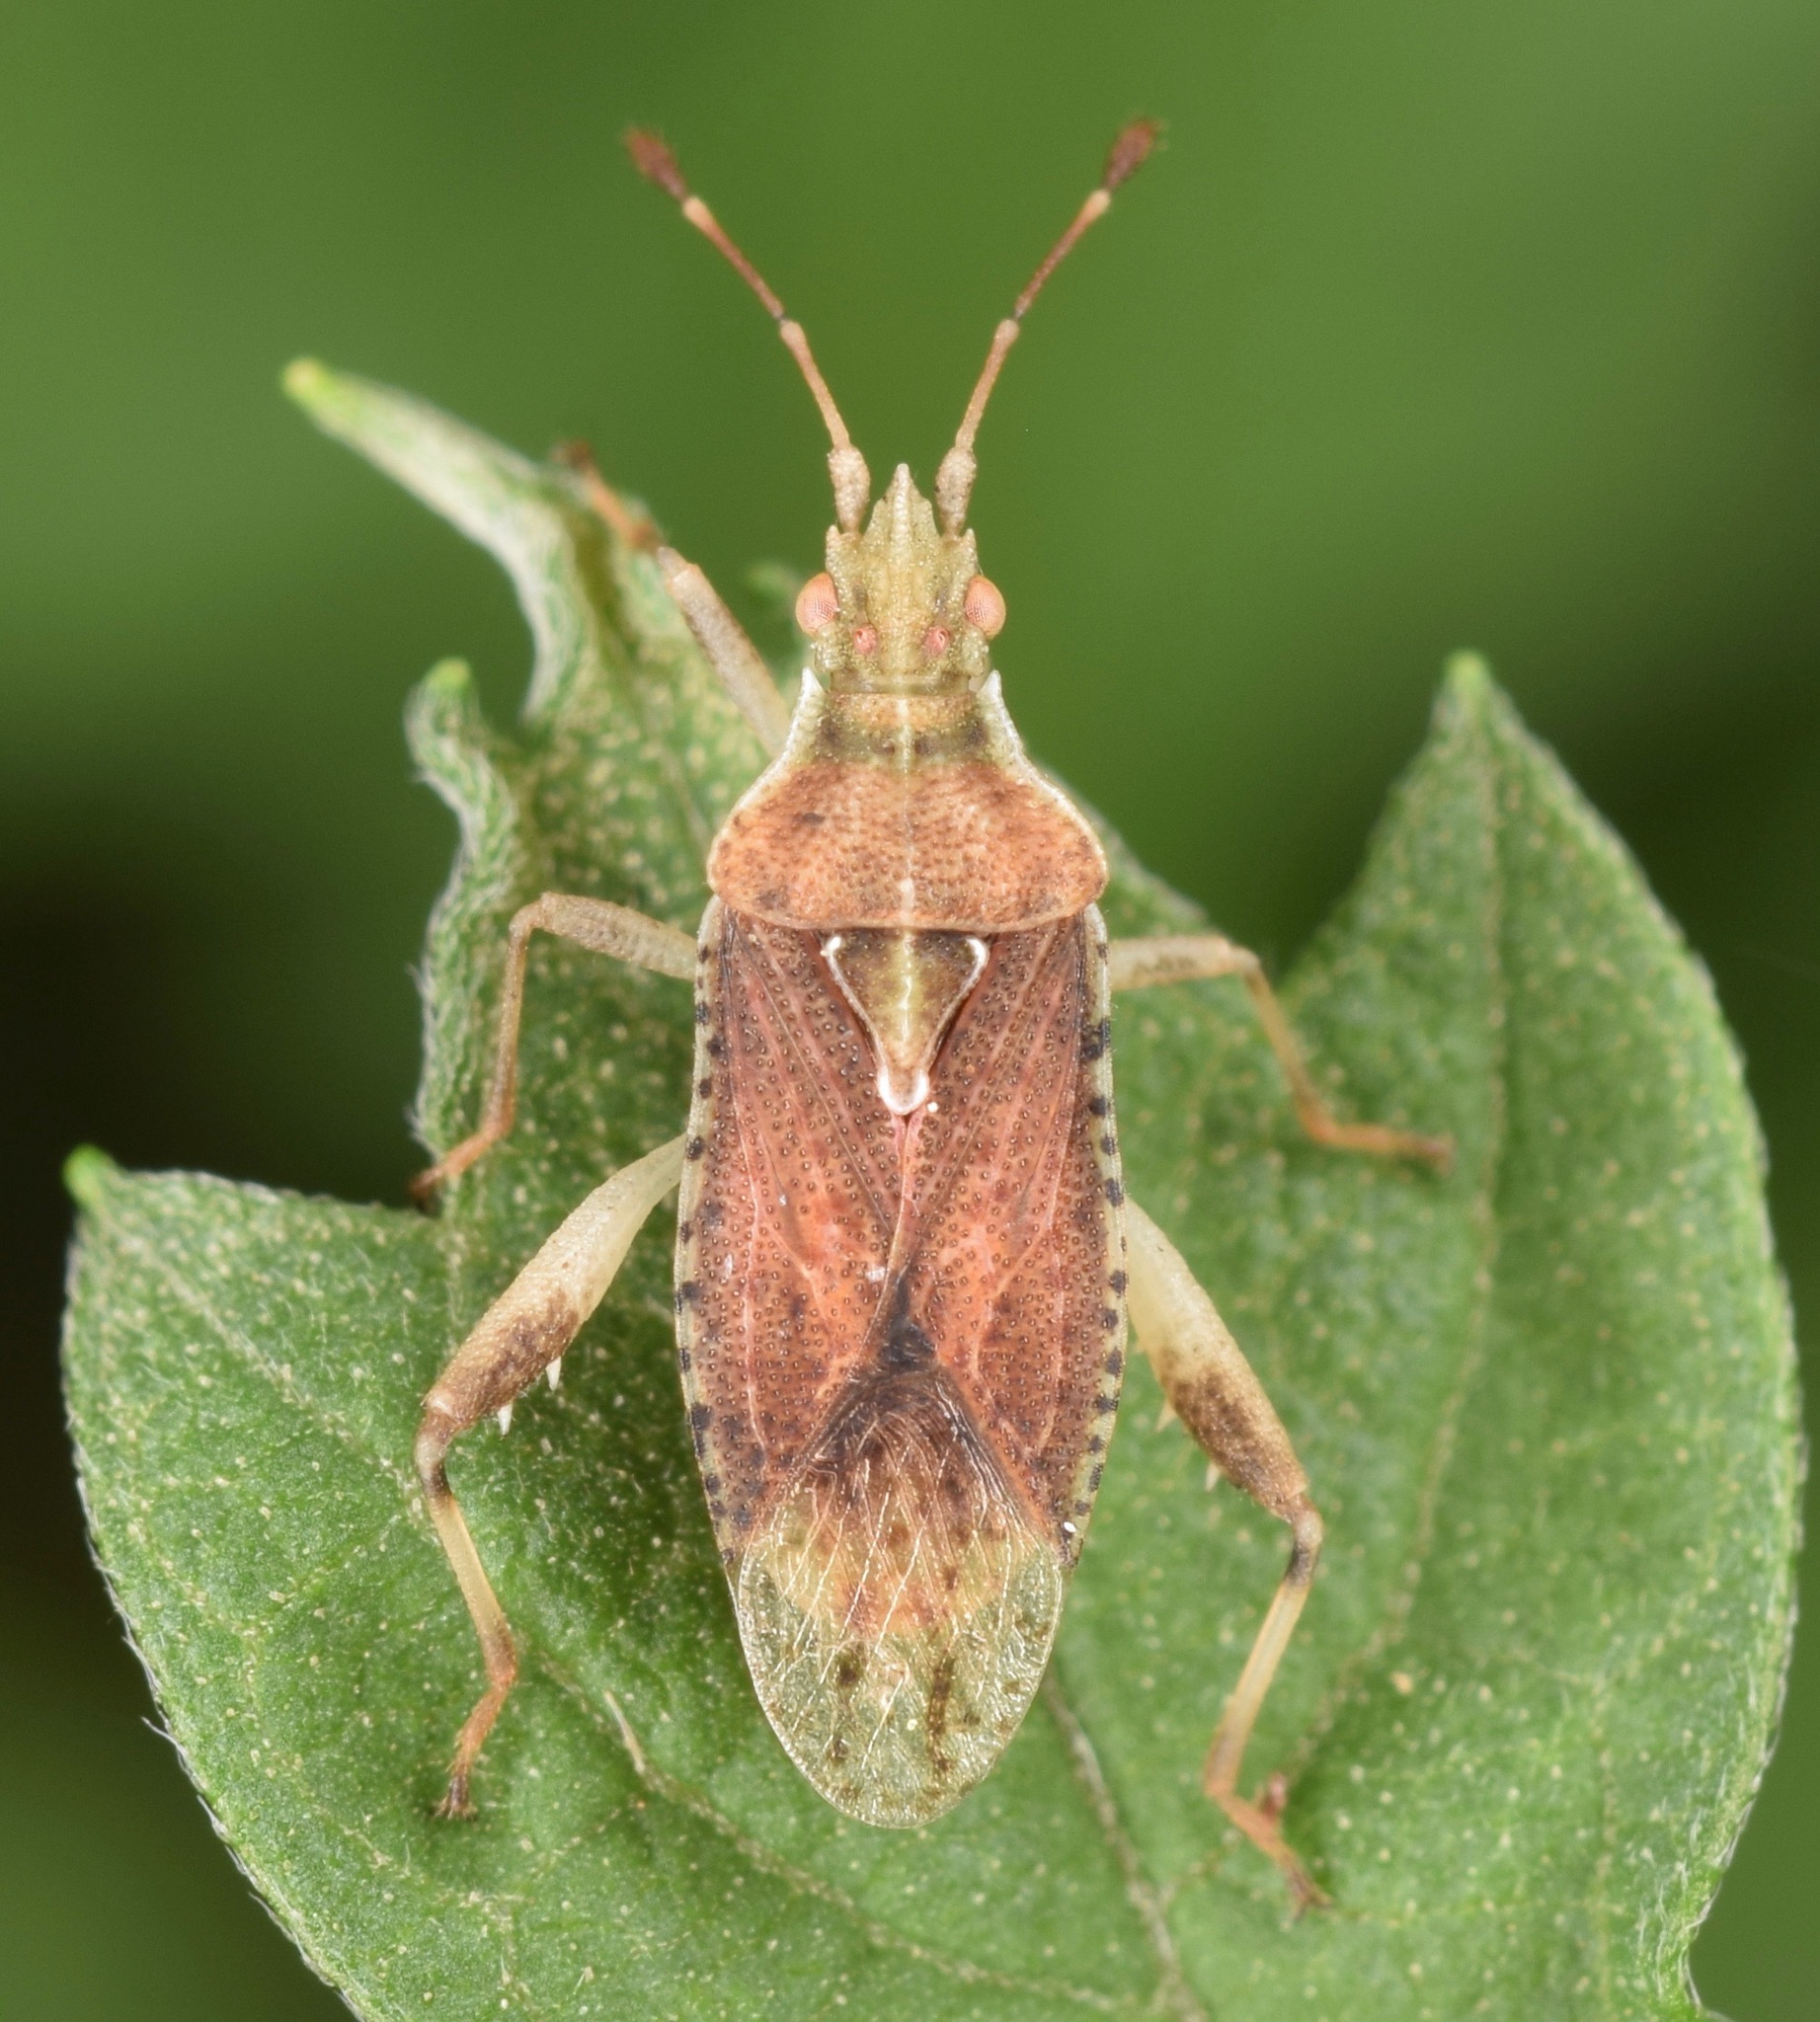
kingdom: Animalia
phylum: Arthropoda
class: Insecta
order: Hemiptera
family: Rhopalidae
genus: Harmostes
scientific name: Harmostes fraterculus
